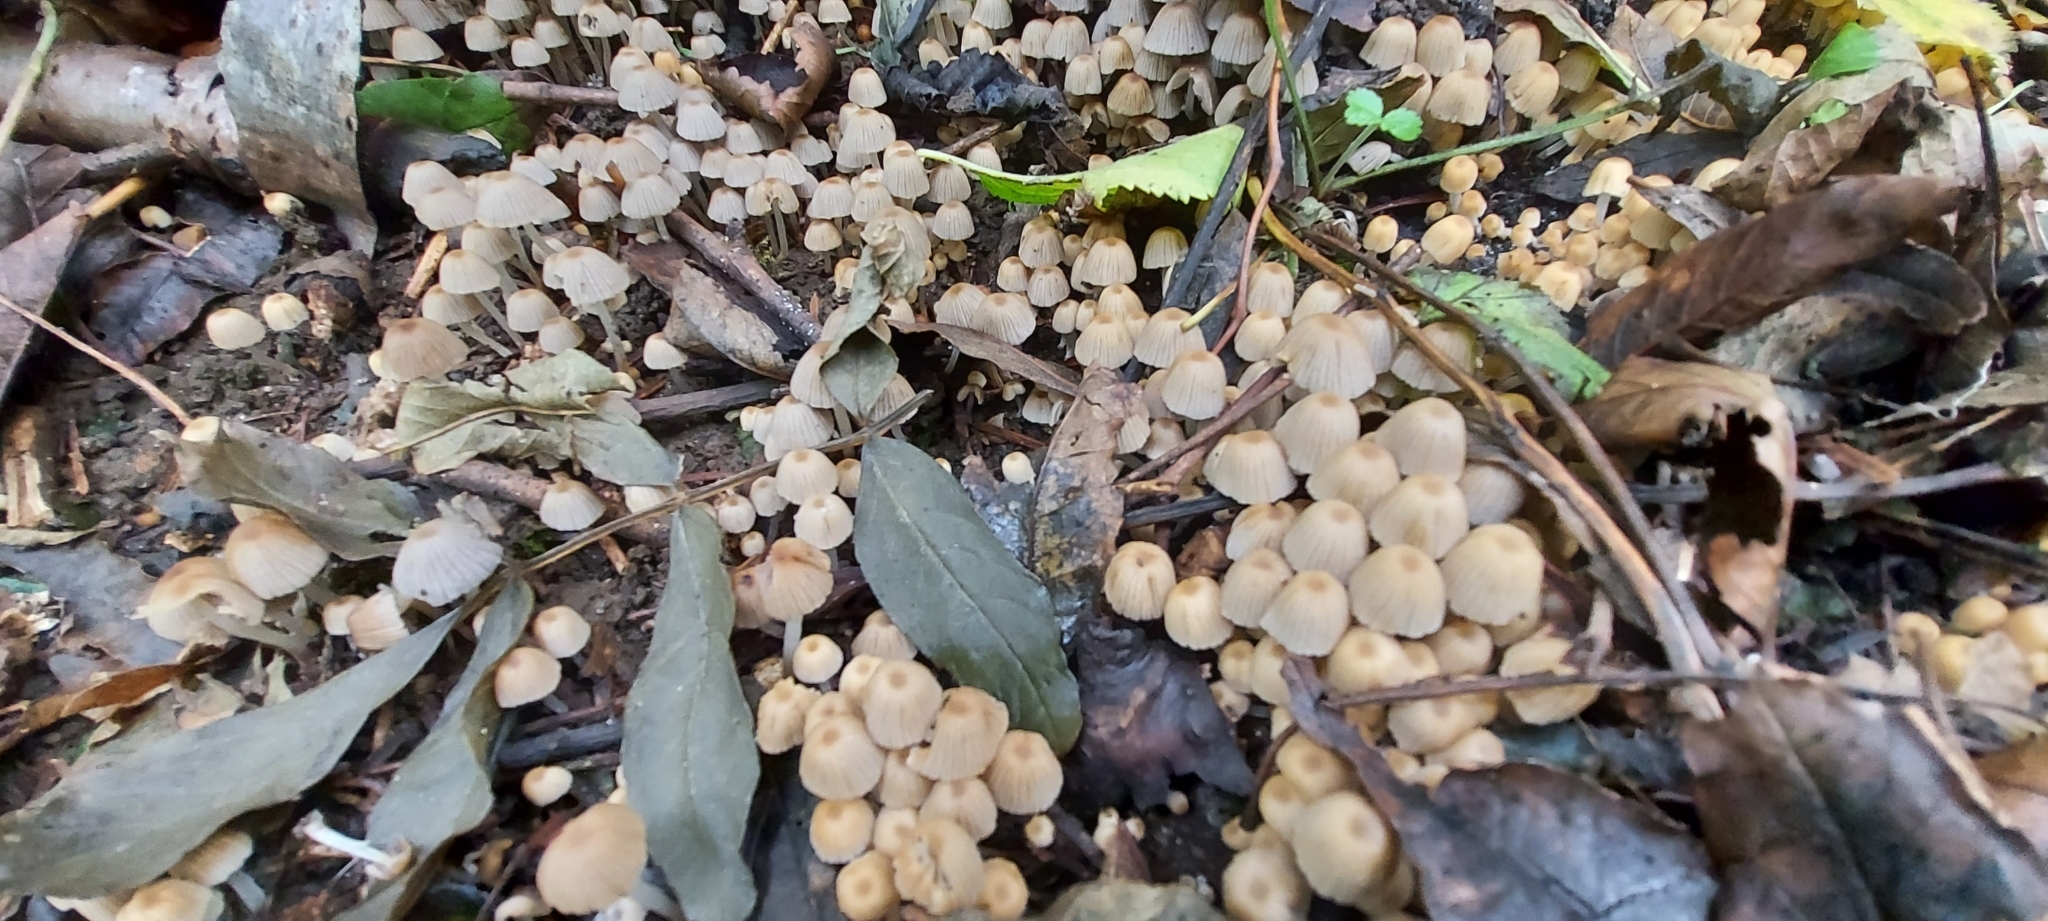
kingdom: Fungi
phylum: Basidiomycota
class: Agaricomycetes
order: Agaricales
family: Psathyrellaceae
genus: Coprinellus
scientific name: Coprinellus disseminatus
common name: Fairies' bonnets
